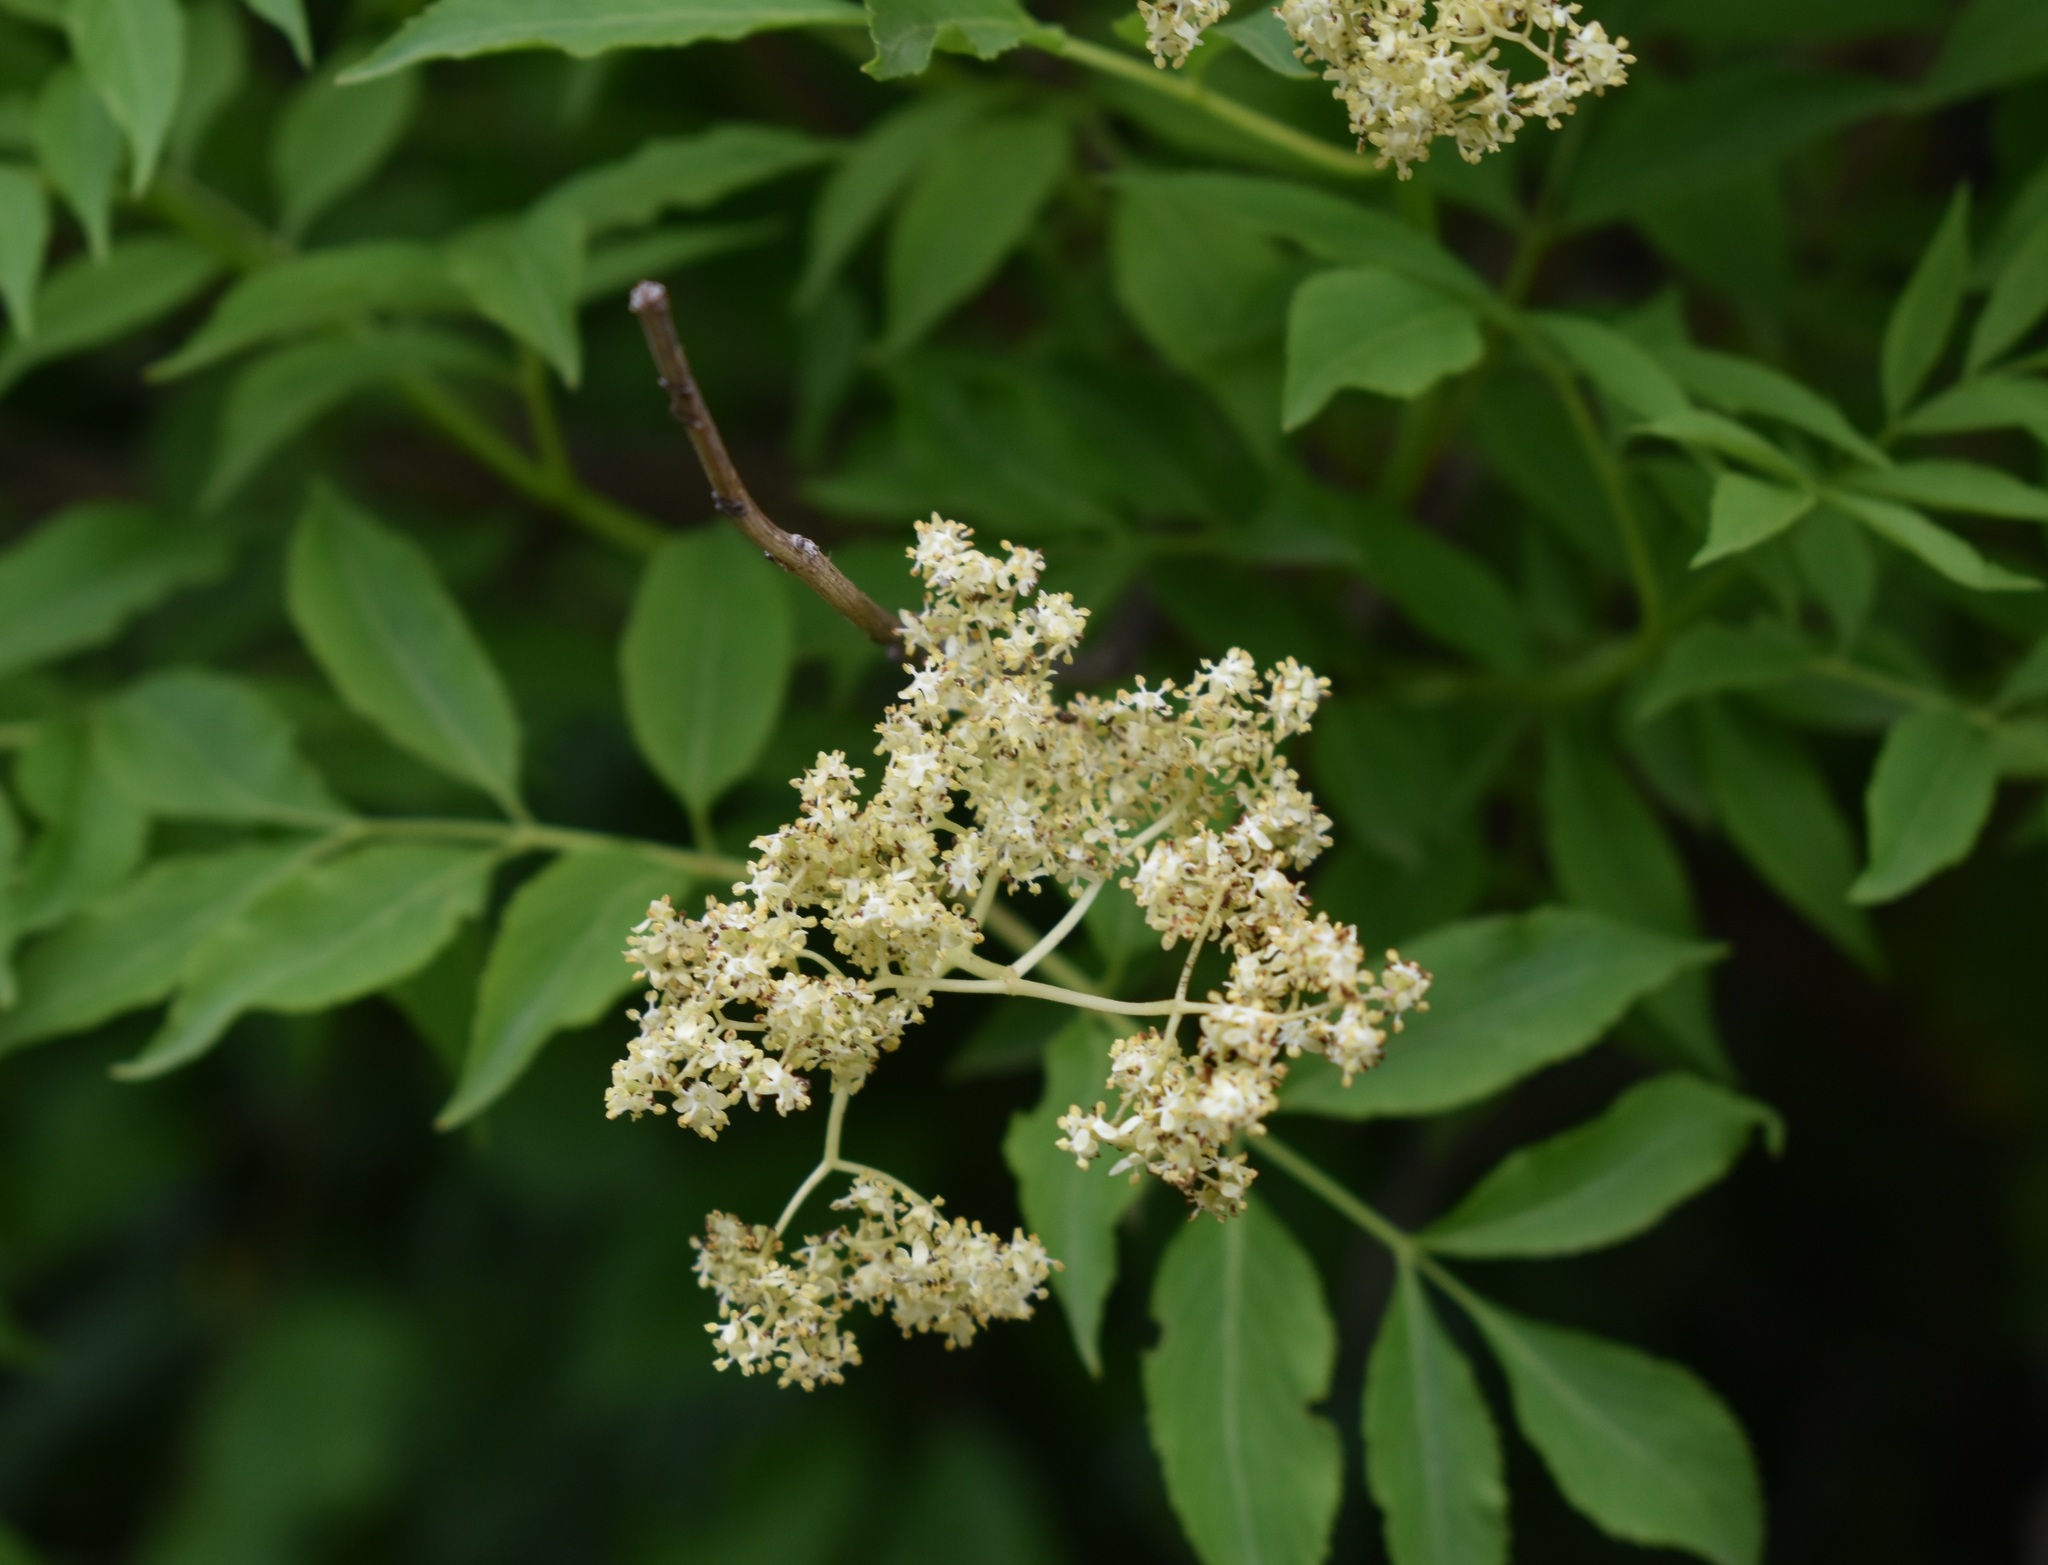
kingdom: Plantae
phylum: Tracheophyta
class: Magnoliopsida
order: Dipsacales
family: Viburnaceae
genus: Sambucus
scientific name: Sambucus williamsii
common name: William's elder
